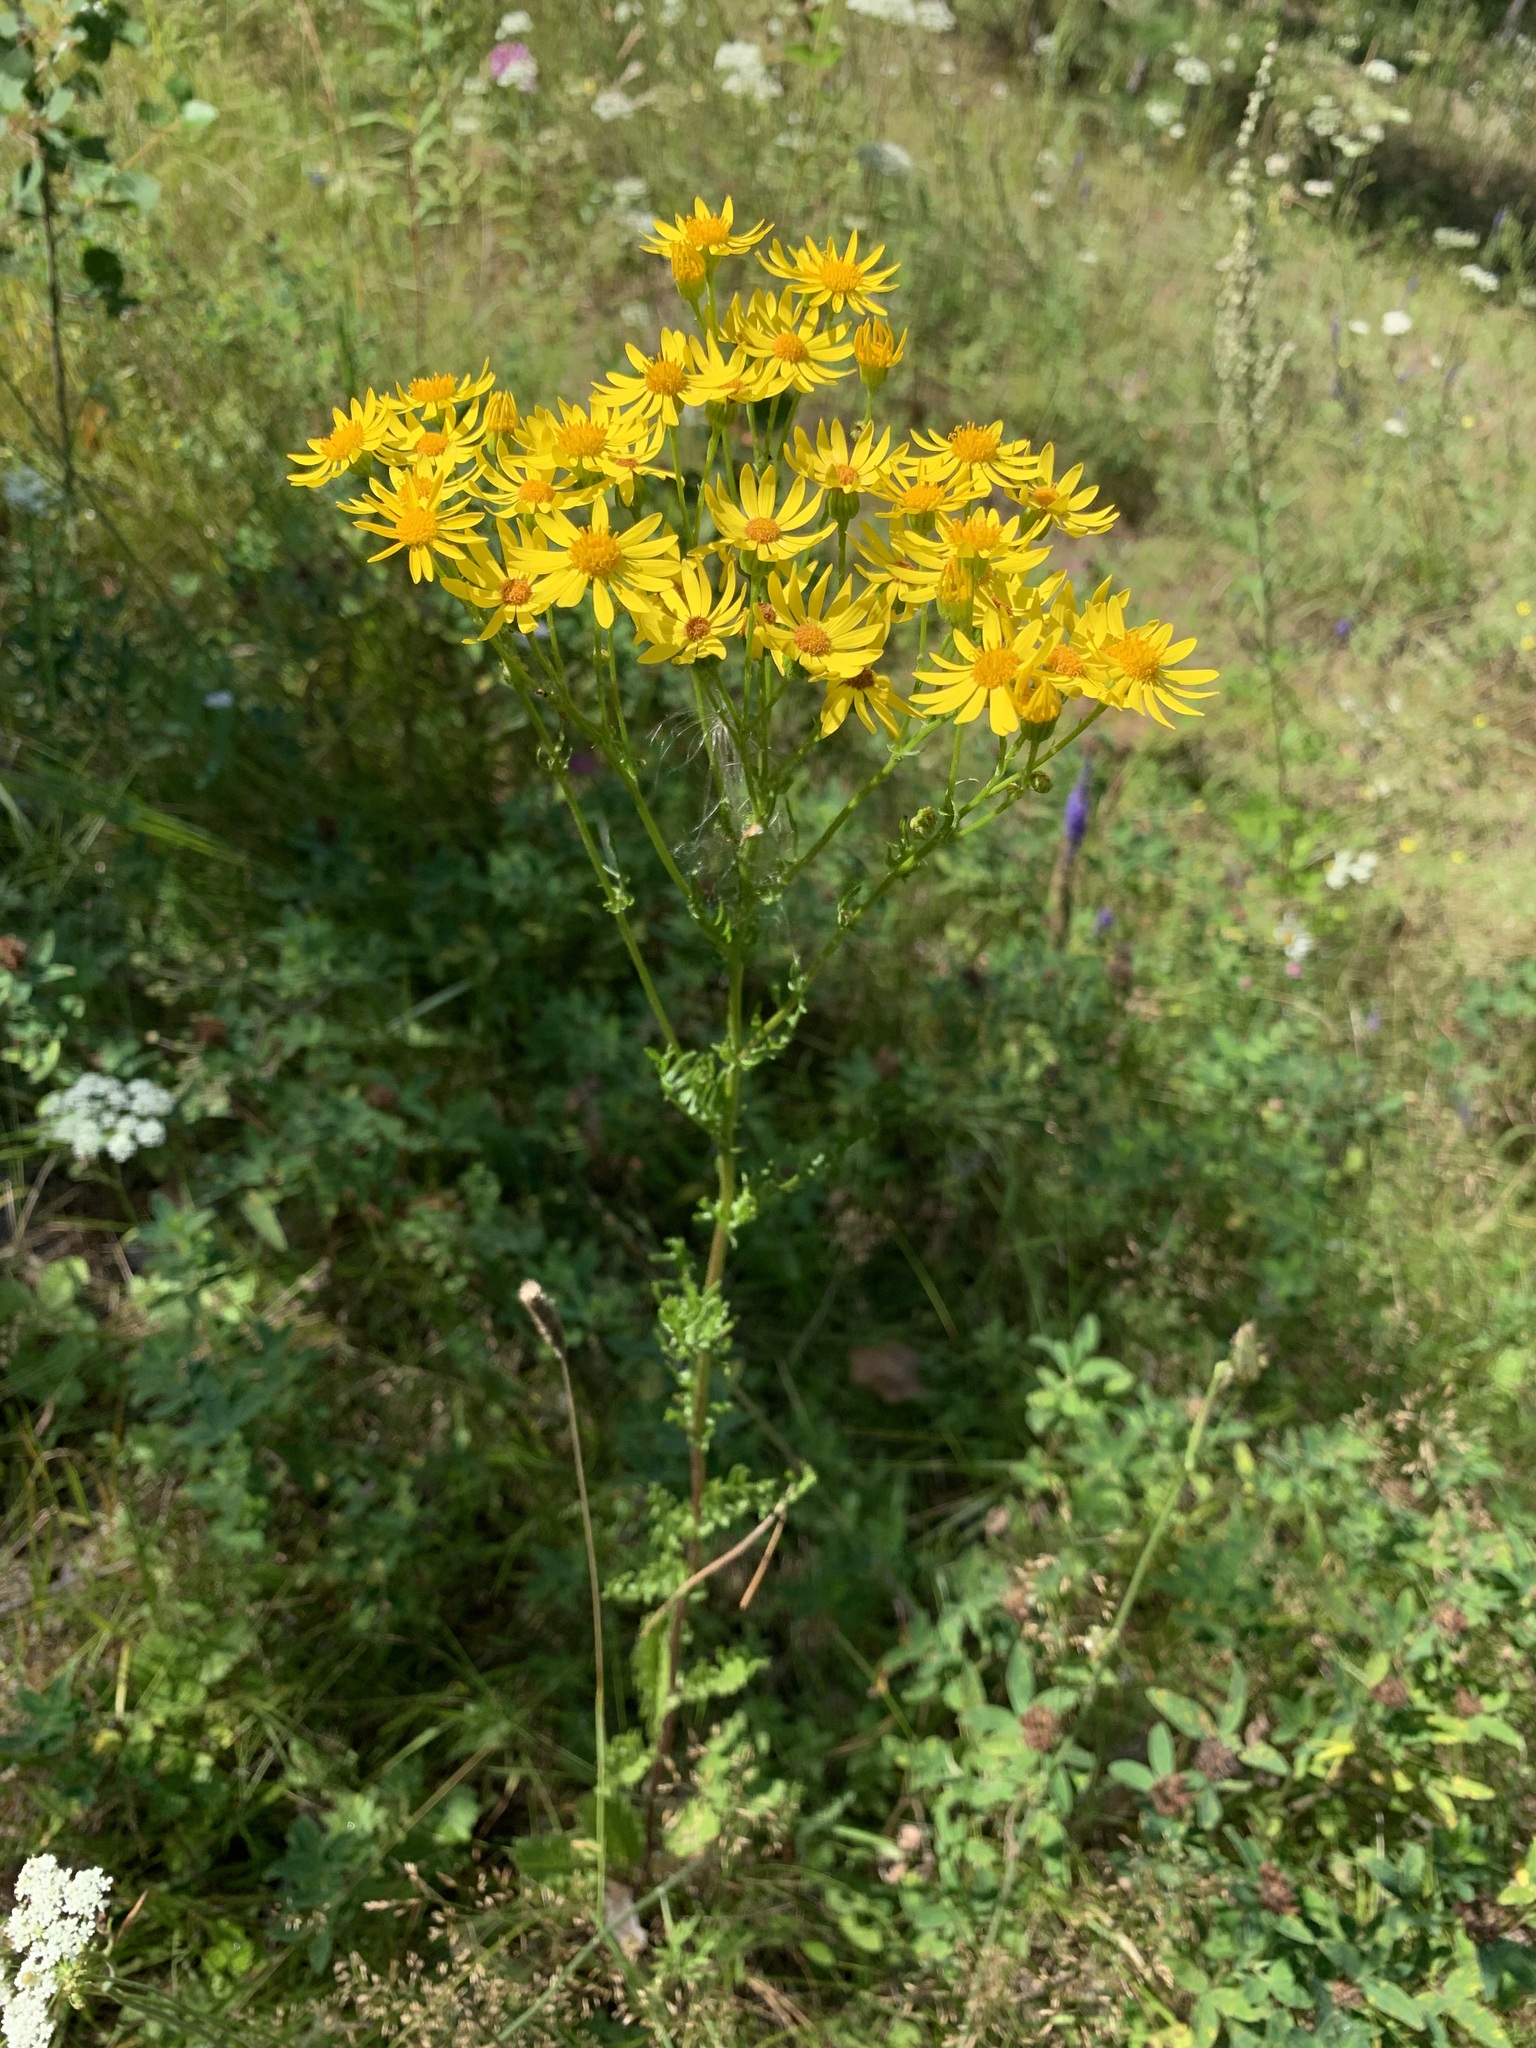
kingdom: Plantae
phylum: Tracheophyta
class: Magnoliopsida
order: Asterales
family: Asteraceae
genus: Jacobaea
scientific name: Jacobaea vulgaris
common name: Stinking willie
